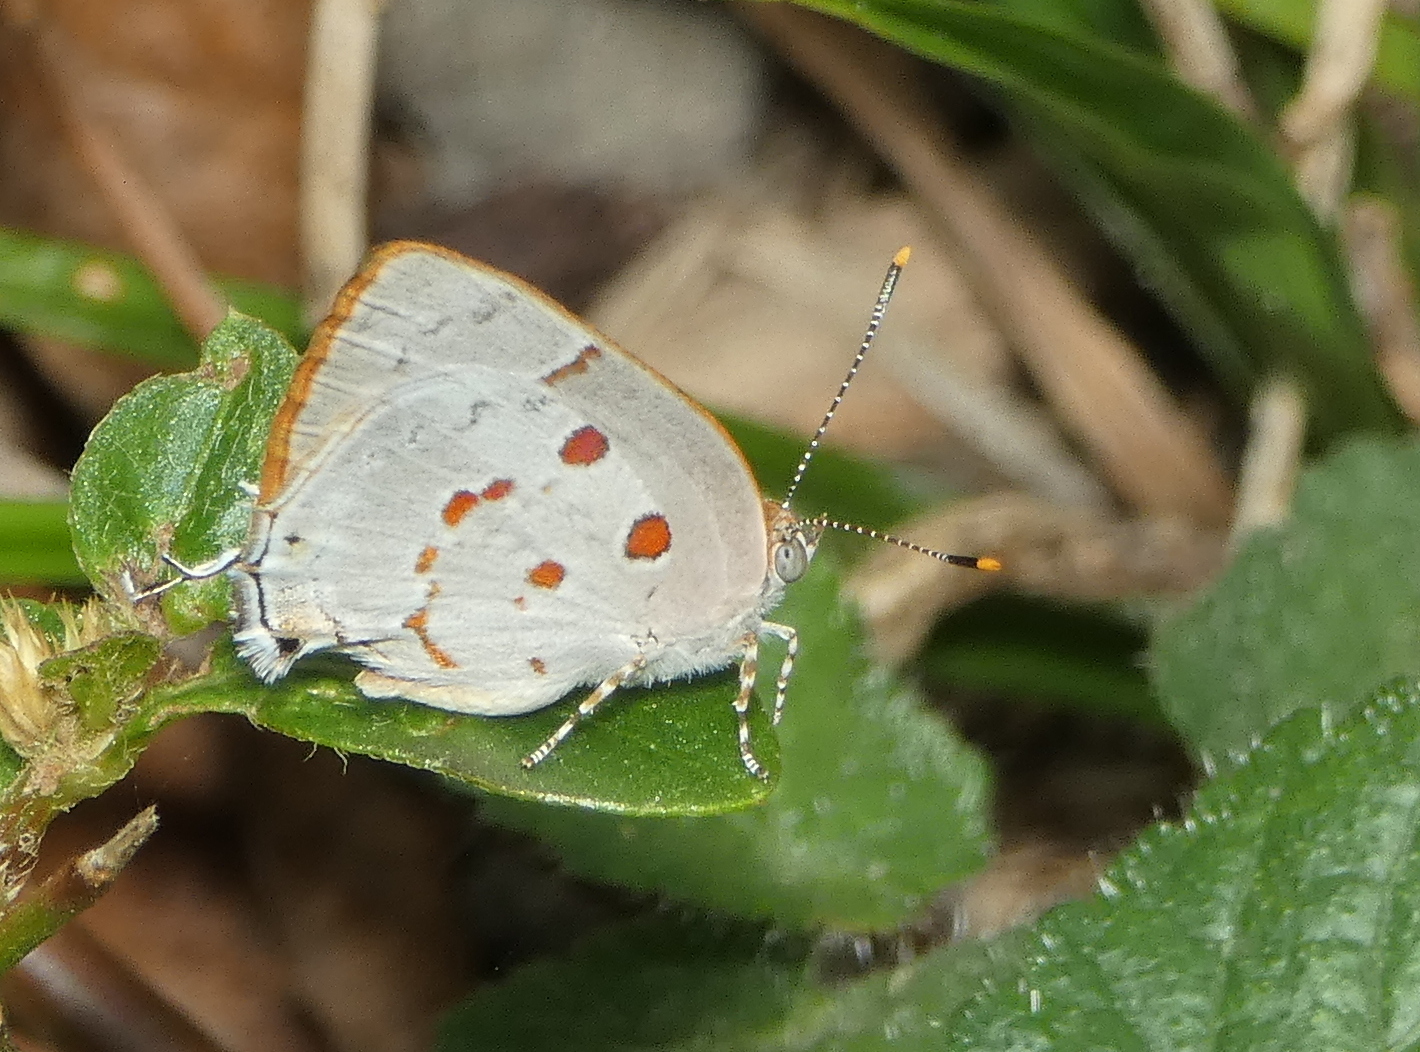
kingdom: Animalia
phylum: Arthropoda
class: Insecta
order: Lepidoptera
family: Lycaenidae
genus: Tmolus
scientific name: Tmolus echion
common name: Red-spotted hairstreak
